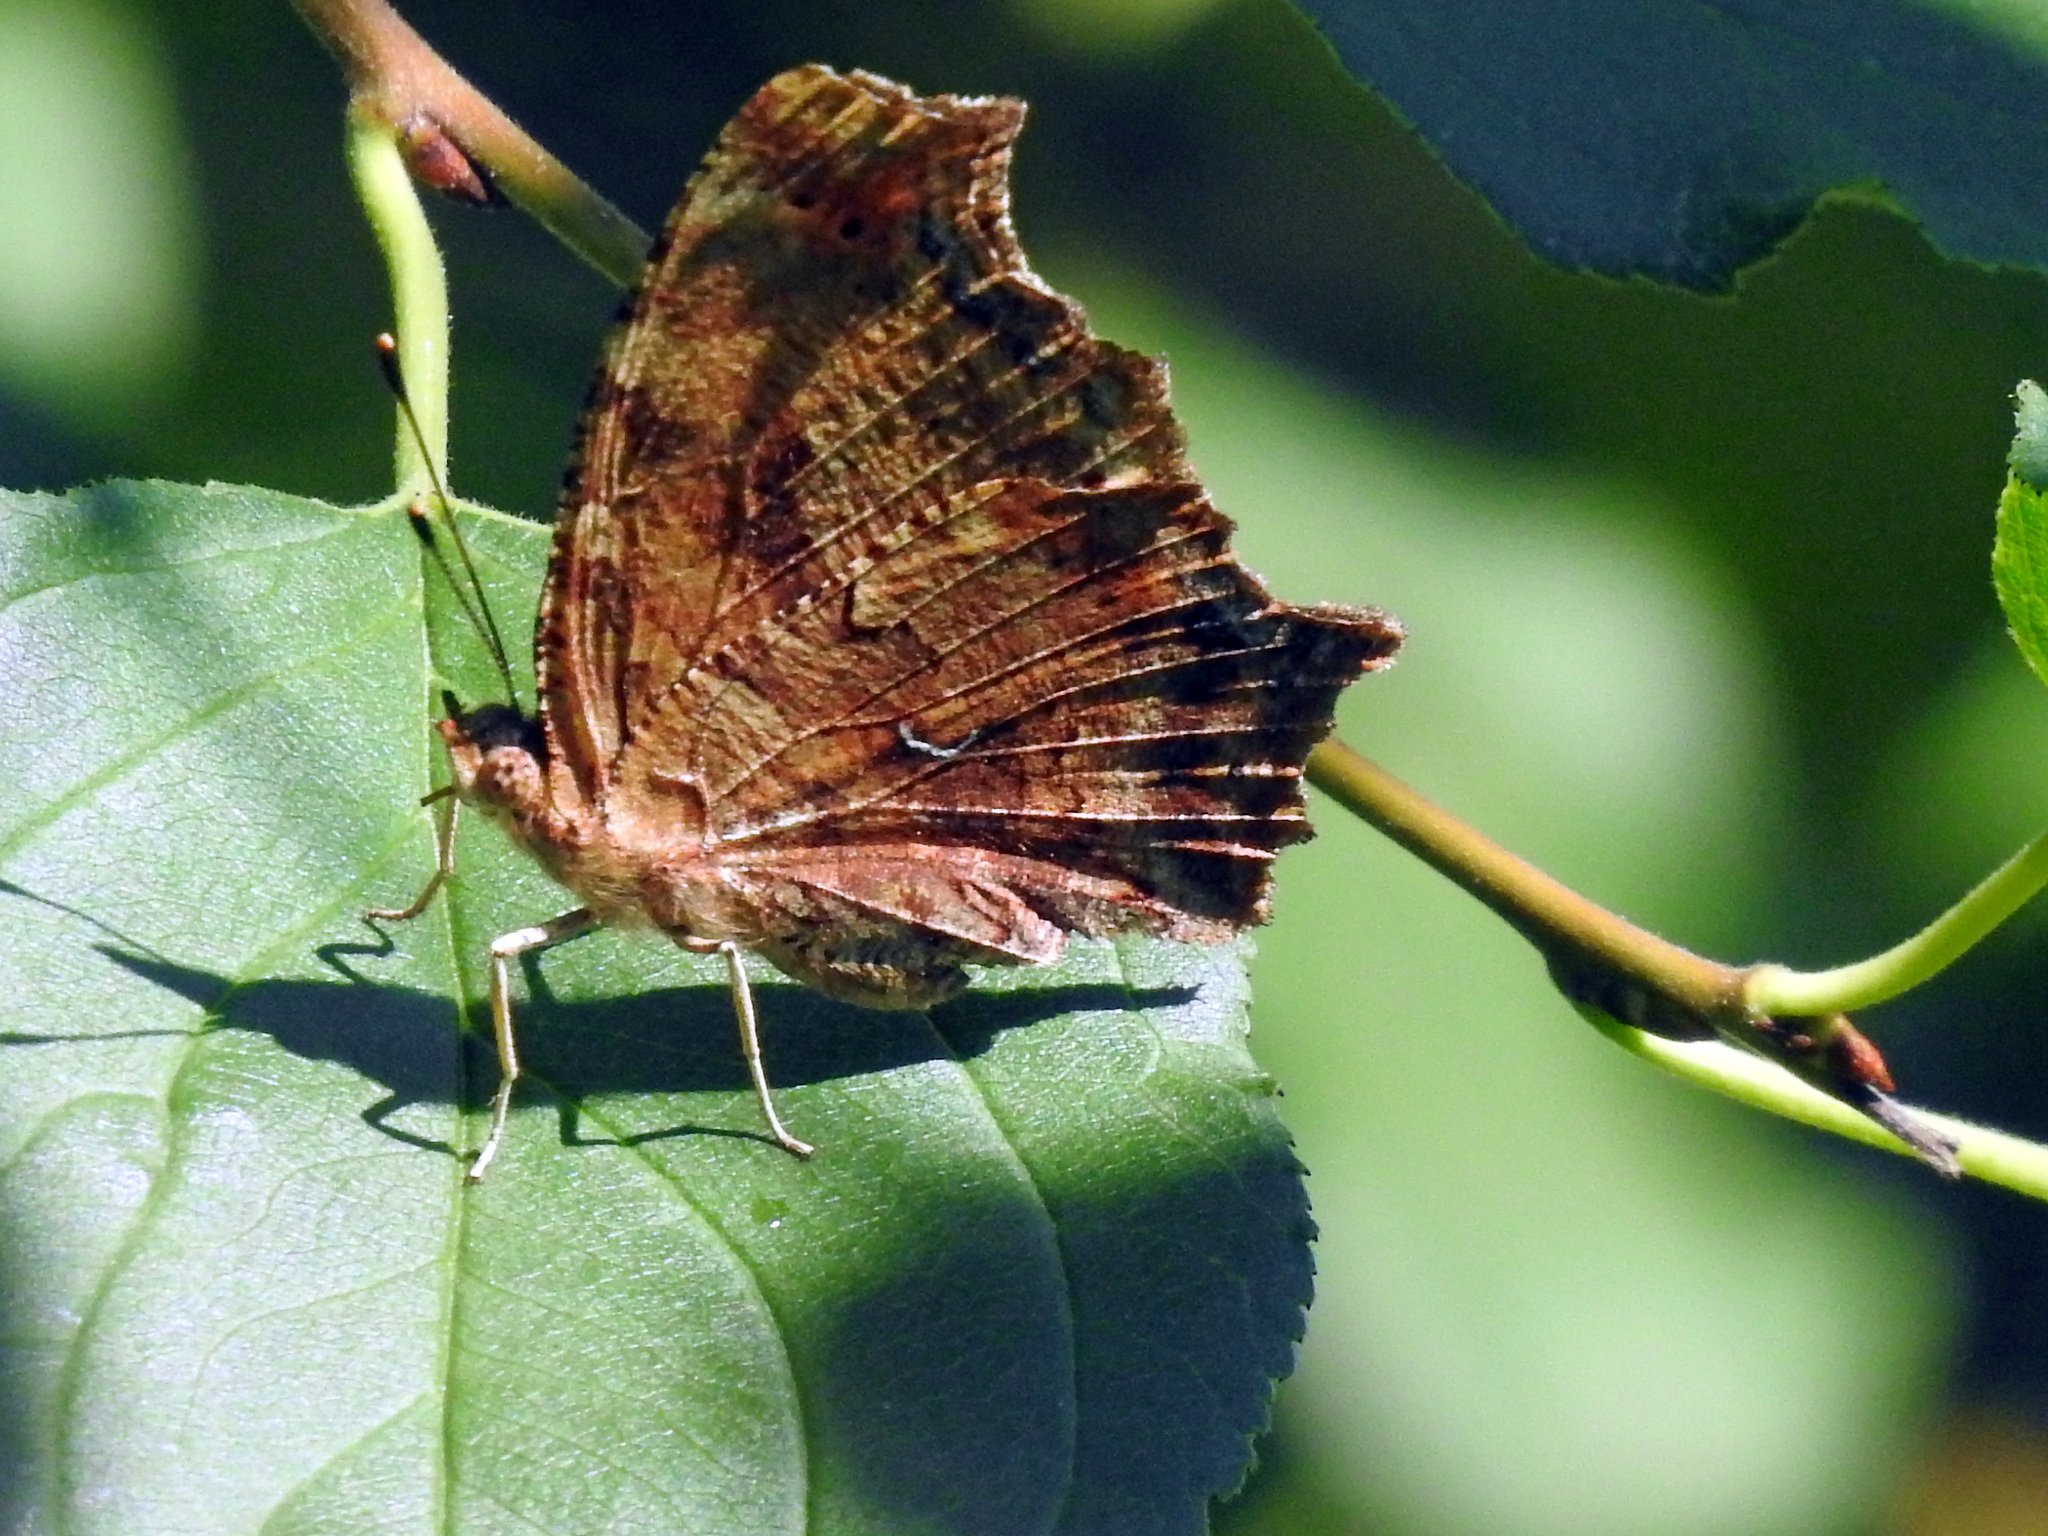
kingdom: Animalia
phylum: Arthropoda
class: Insecta
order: Lepidoptera
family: Nymphalidae
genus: Polygonia
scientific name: Polygonia comma
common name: Eastern comma
